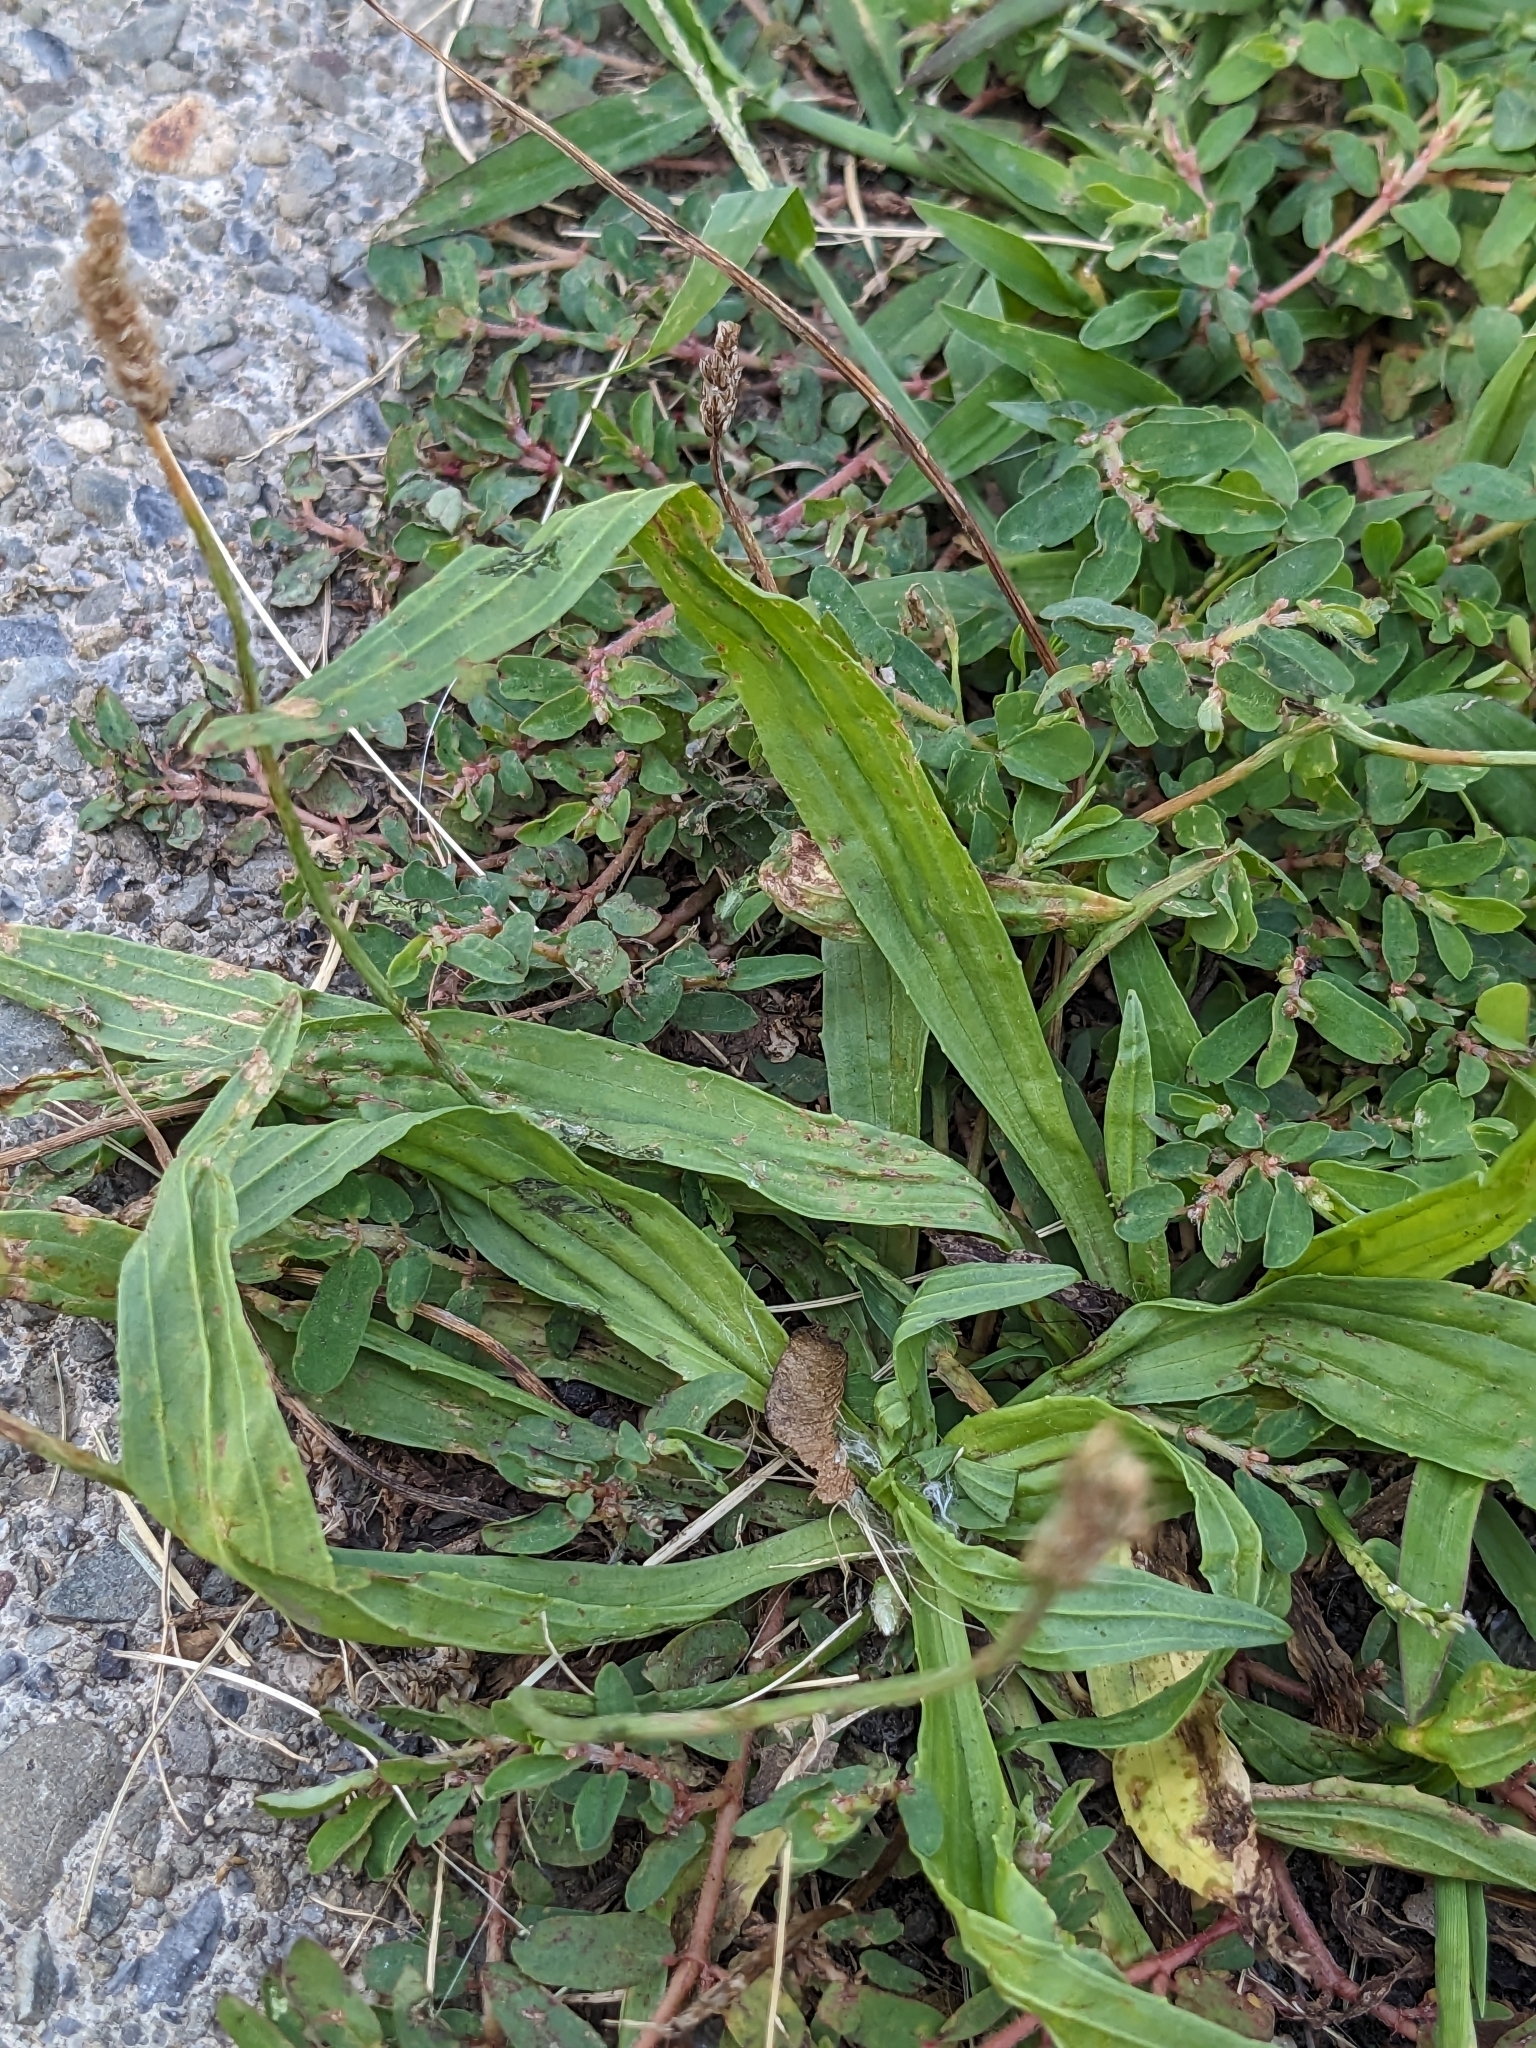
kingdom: Plantae
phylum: Tracheophyta
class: Magnoliopsida
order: Lamiales
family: Plantaginaceae
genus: Plantago
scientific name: Plantago lanceolata
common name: Ribwort plantain
